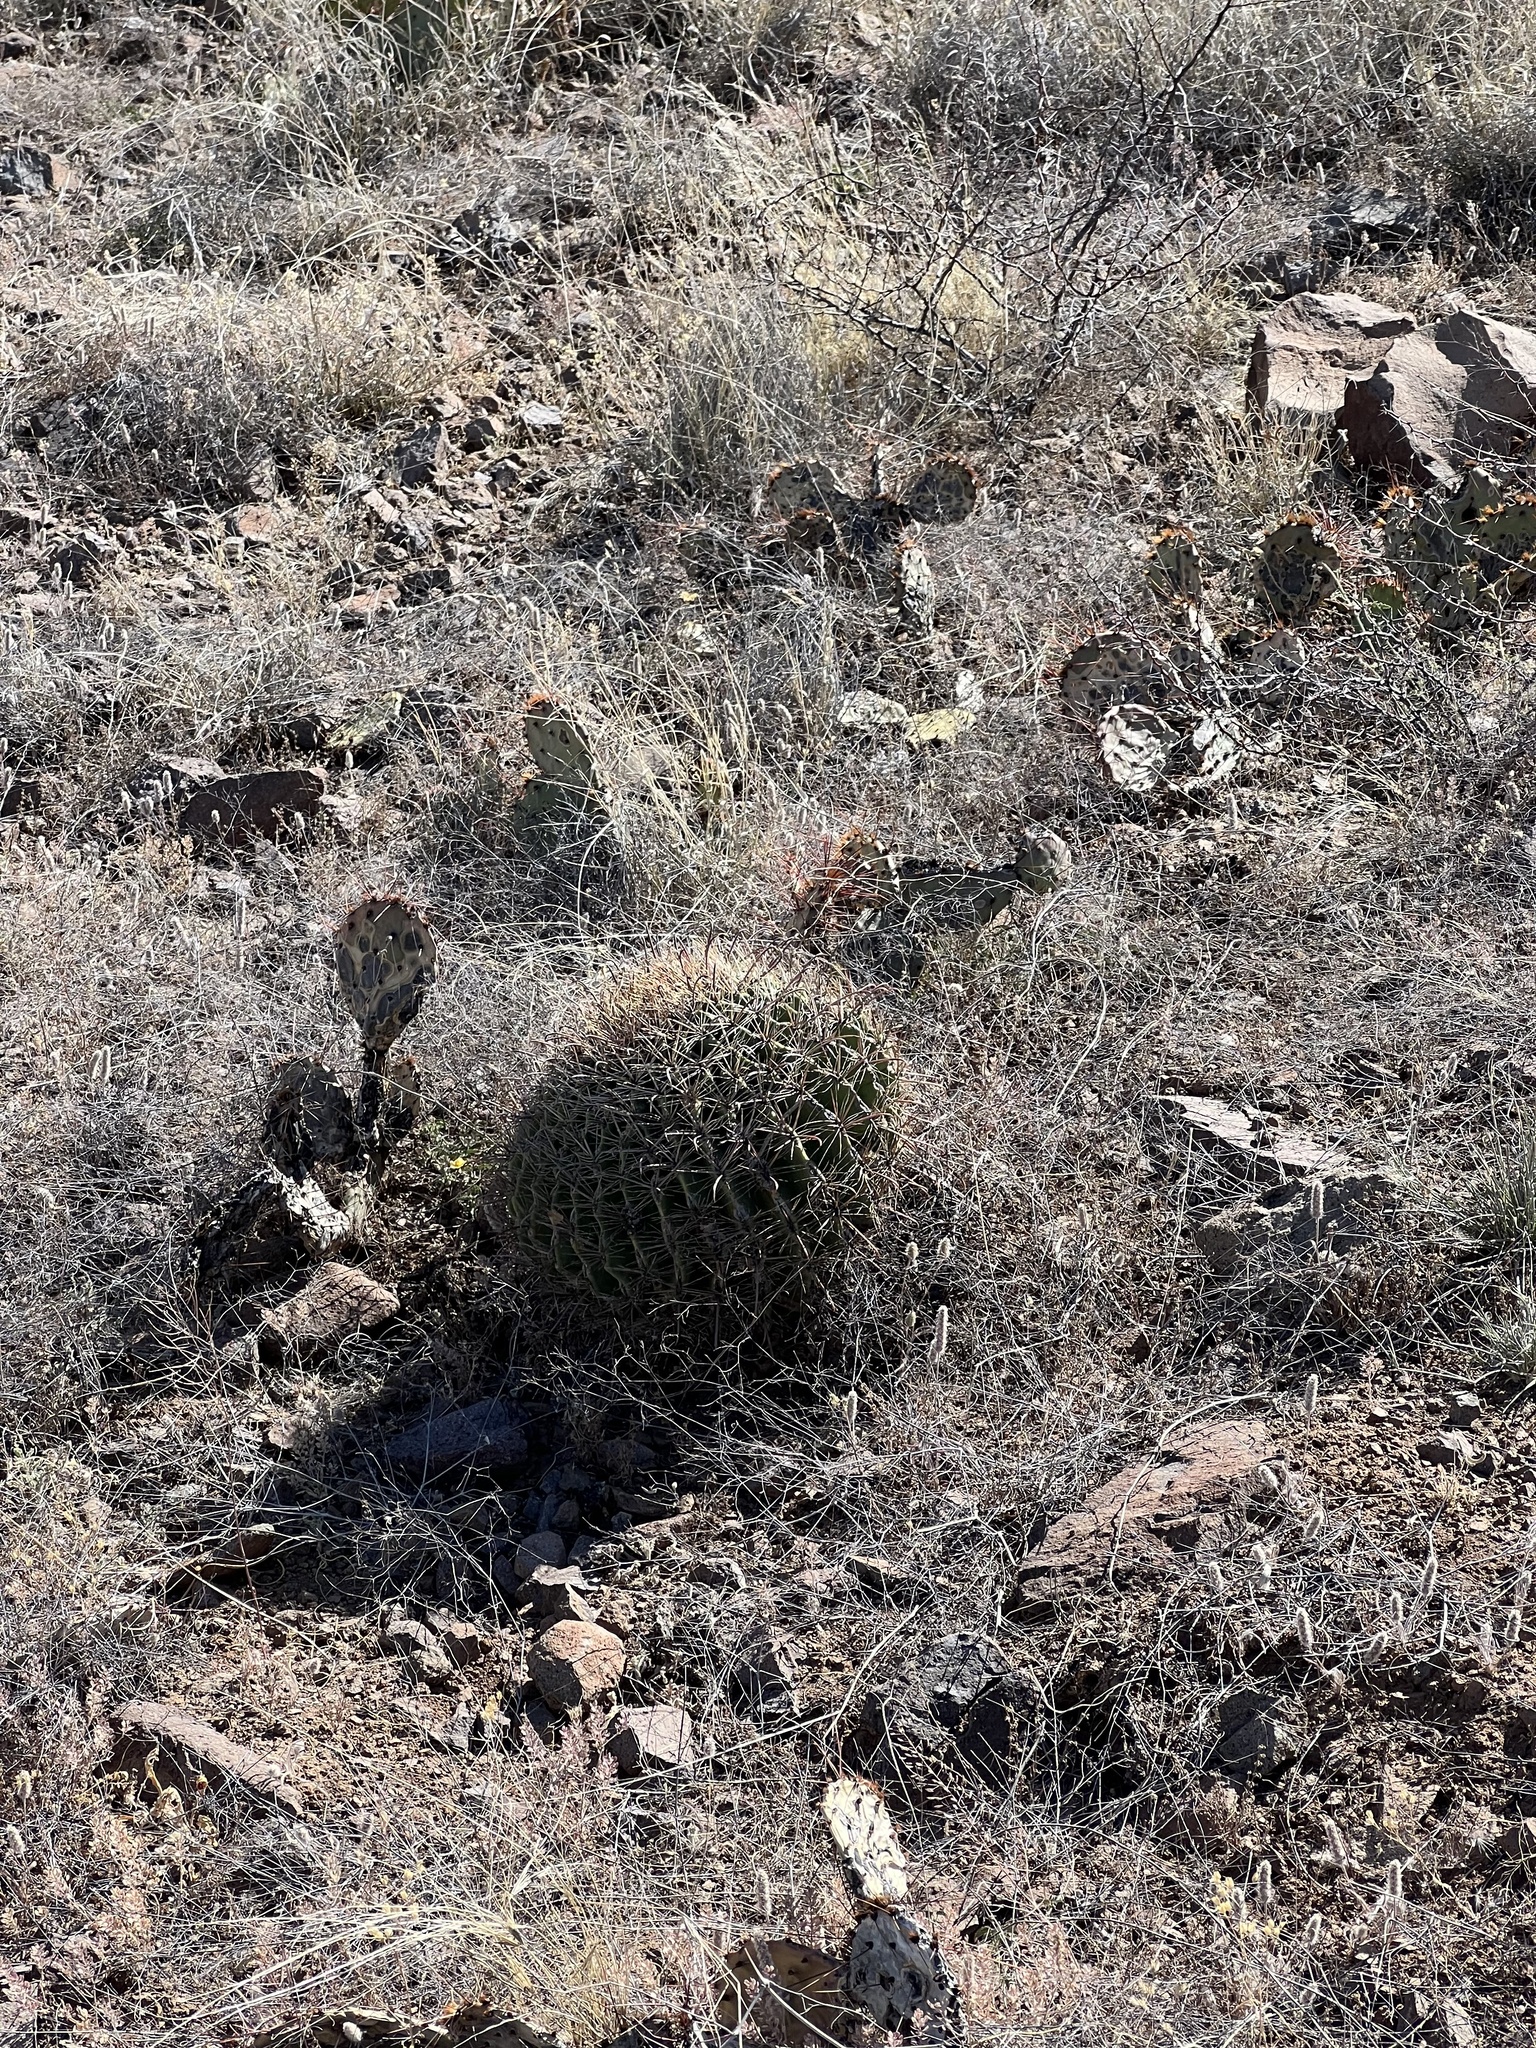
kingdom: Plantae
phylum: Tracheophyta
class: Magnoliopsida
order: Caryophyllales
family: Cactaceae
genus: Ferocactus
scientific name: Ferocactus wislizeni
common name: Candy barrel cactus
